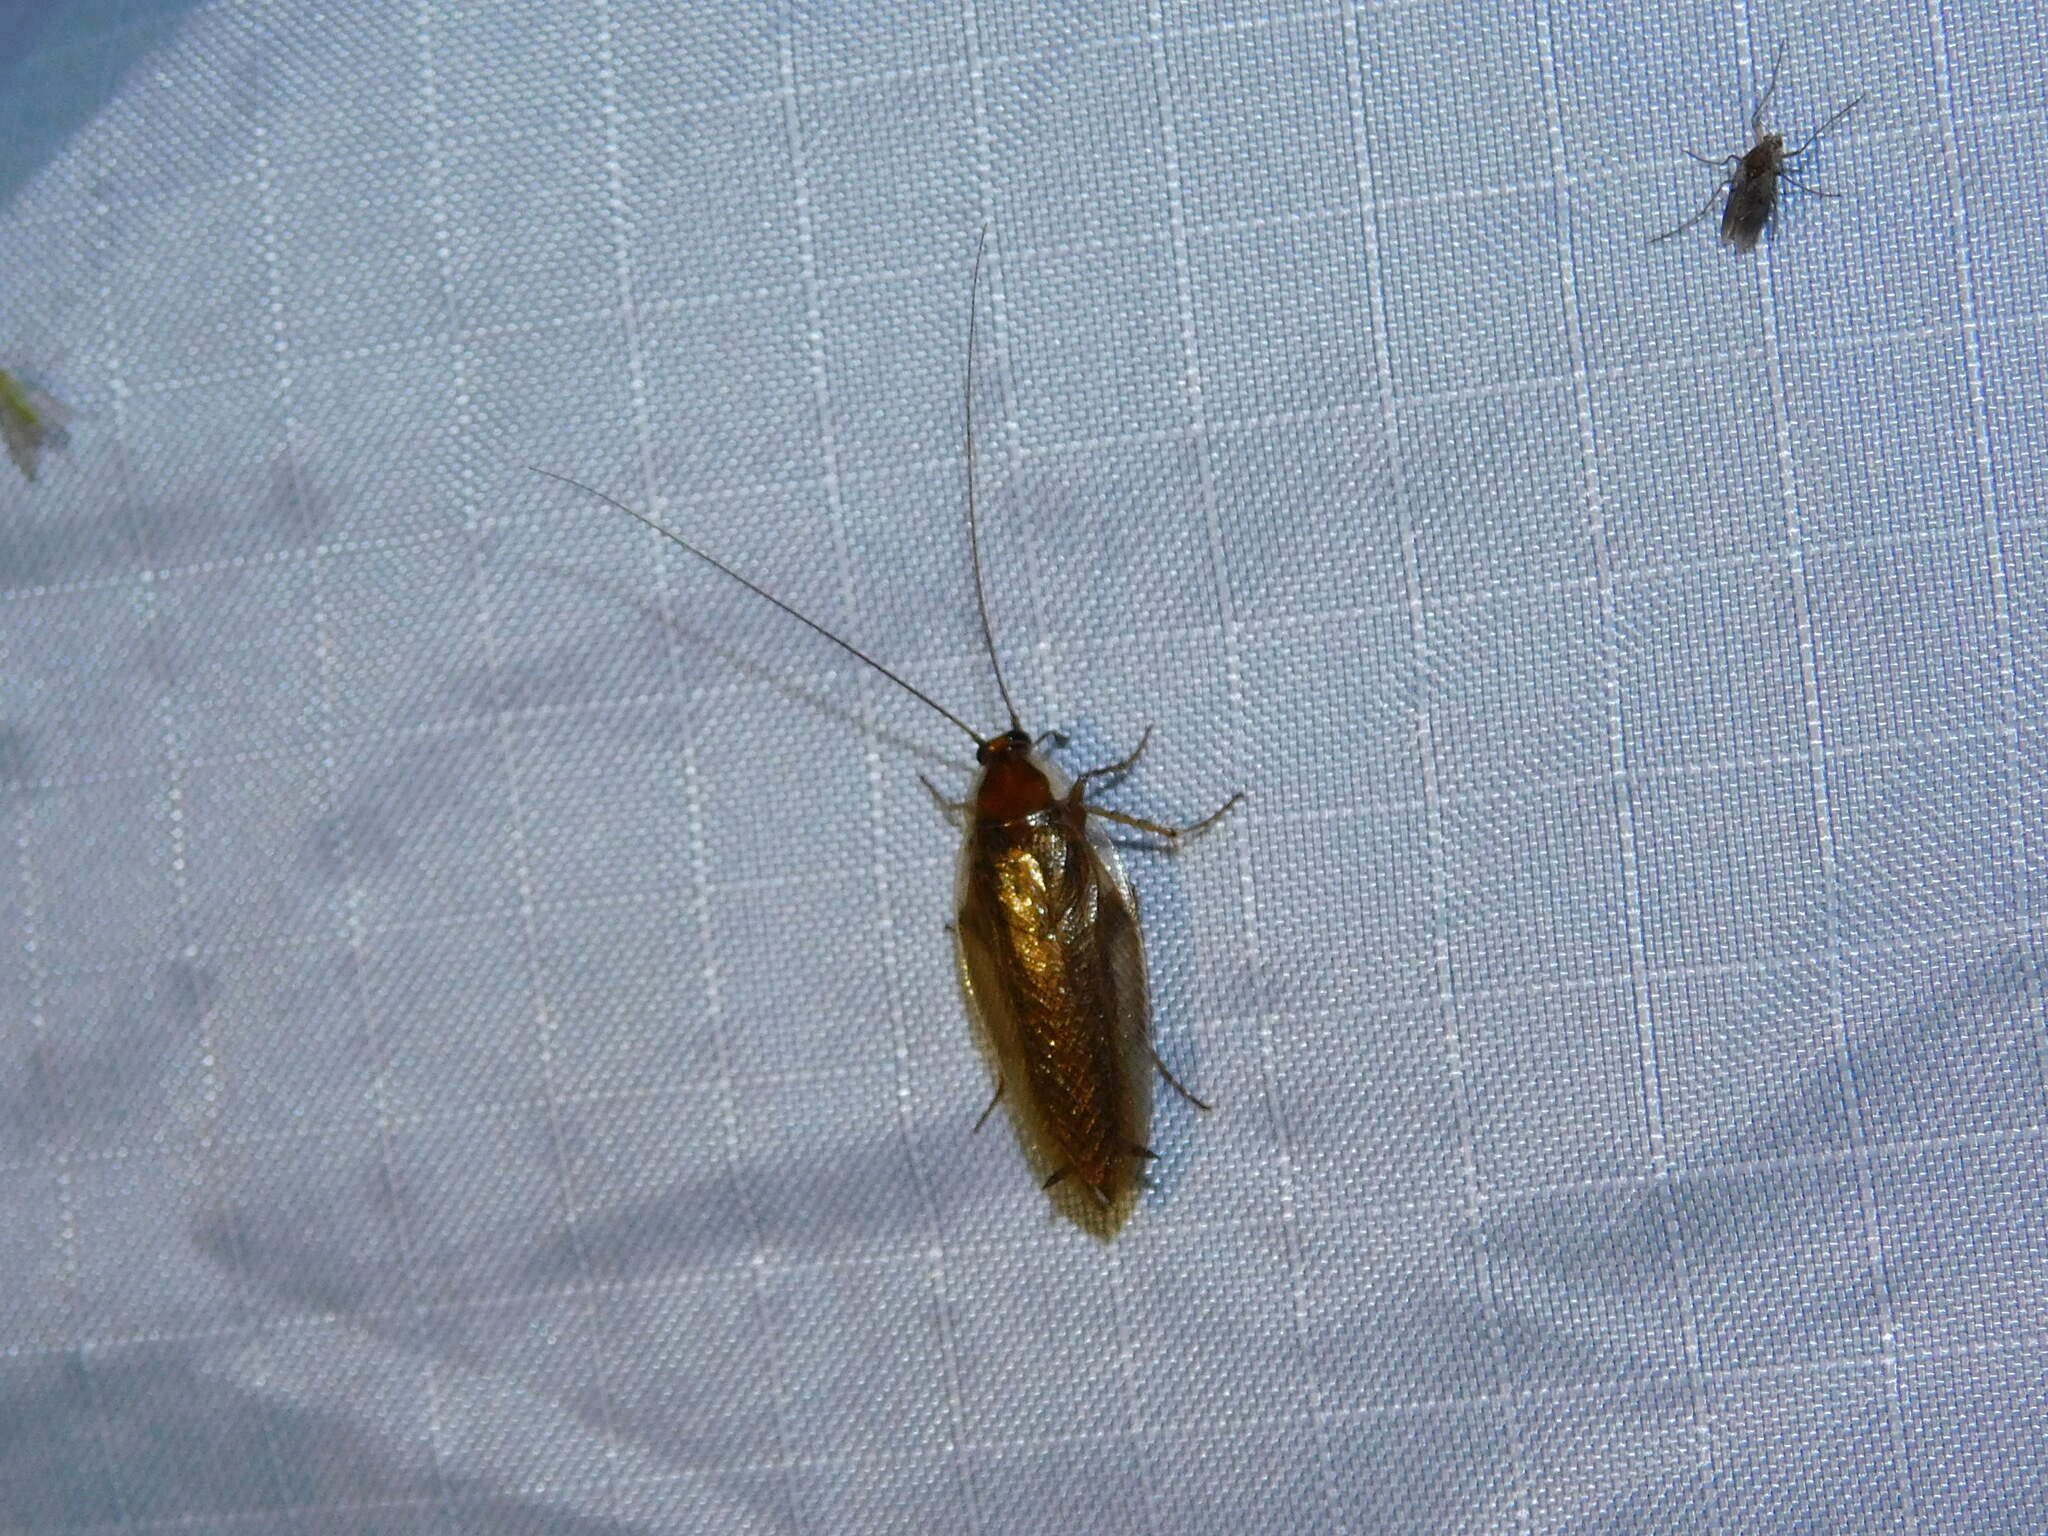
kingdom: Animalia
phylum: Arthropoda
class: Insecta
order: Blattodea
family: Ectobiidae
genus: Ectobius
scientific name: Ectobius vittiventris
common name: Garden cockroach
